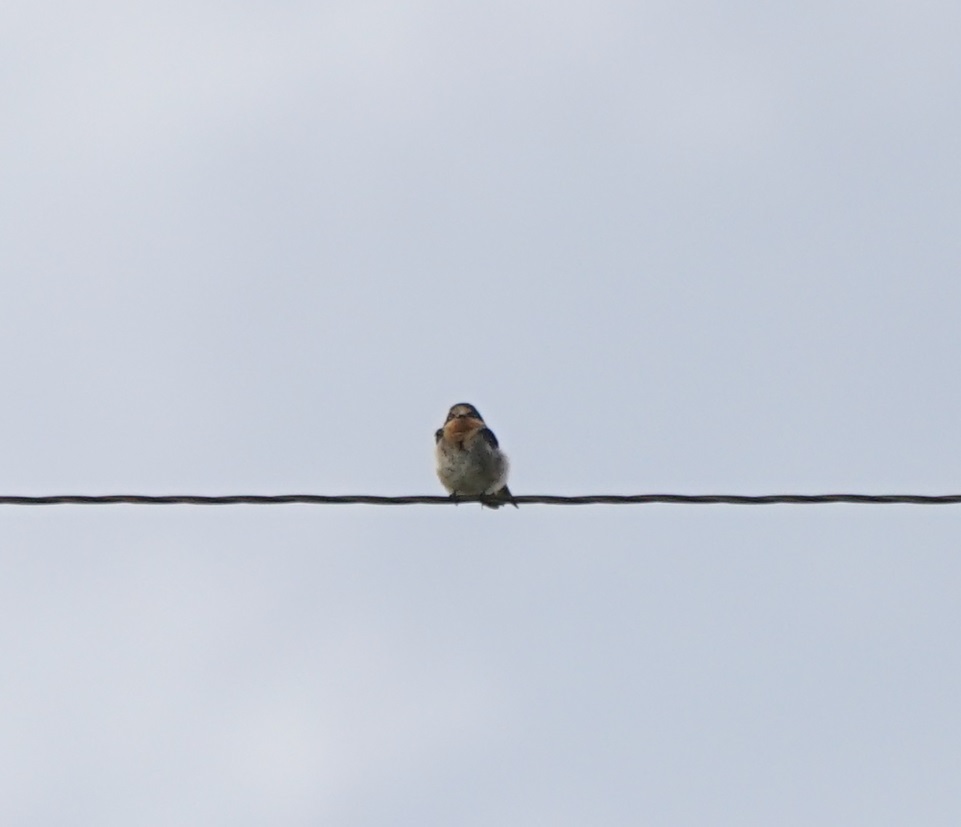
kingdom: Animalia
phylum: Chordata
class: Aves
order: Passeriformes
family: Hirundinidae
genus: Hirundo
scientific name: Hirundo neoxena
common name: Welcome swallow
